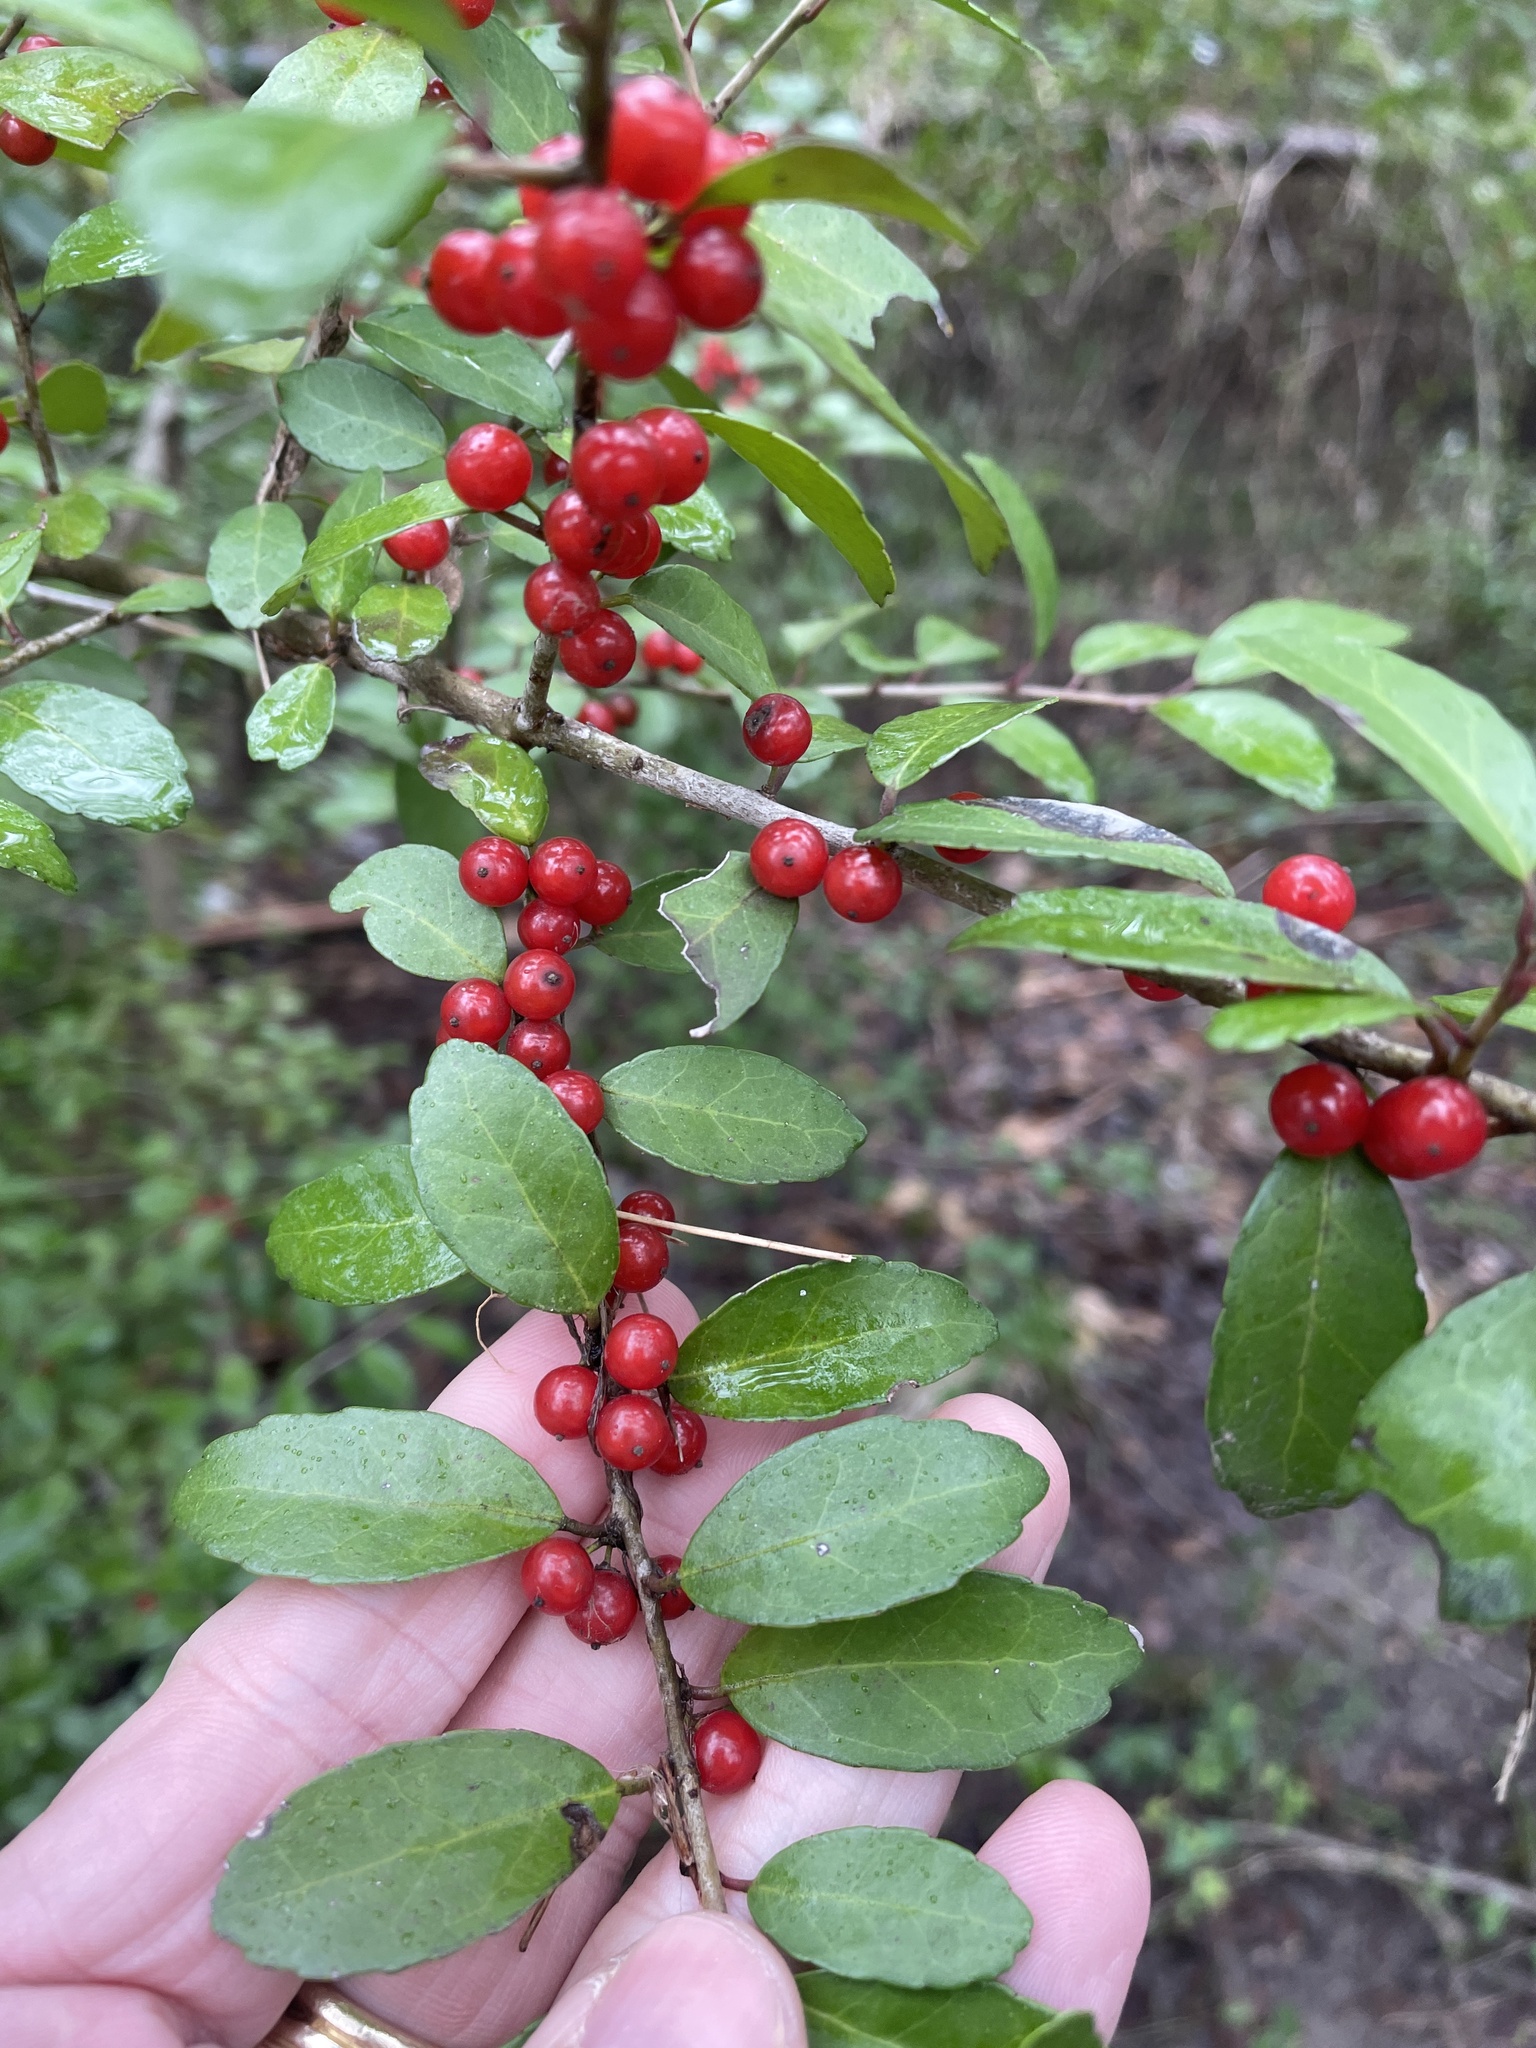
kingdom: Plantae
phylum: Tracheophyta
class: Magnoliopsida
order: Aquifoliales
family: Aquifoliaceae
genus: Ilex
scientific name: Ilex vomitoria
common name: Yaupon holly
